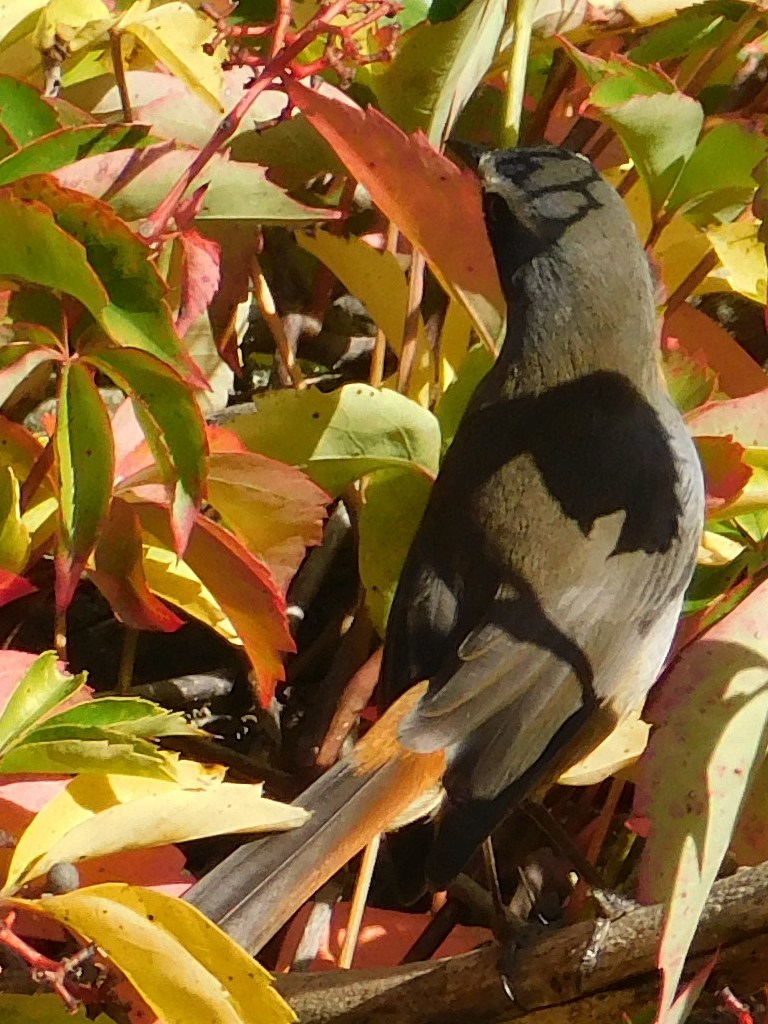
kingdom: Animalia
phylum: Chordata
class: Aves
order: Passeriformes
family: Muscicapidae
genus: Cossypha
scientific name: Cossypha caffra
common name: Cape robin-chat
